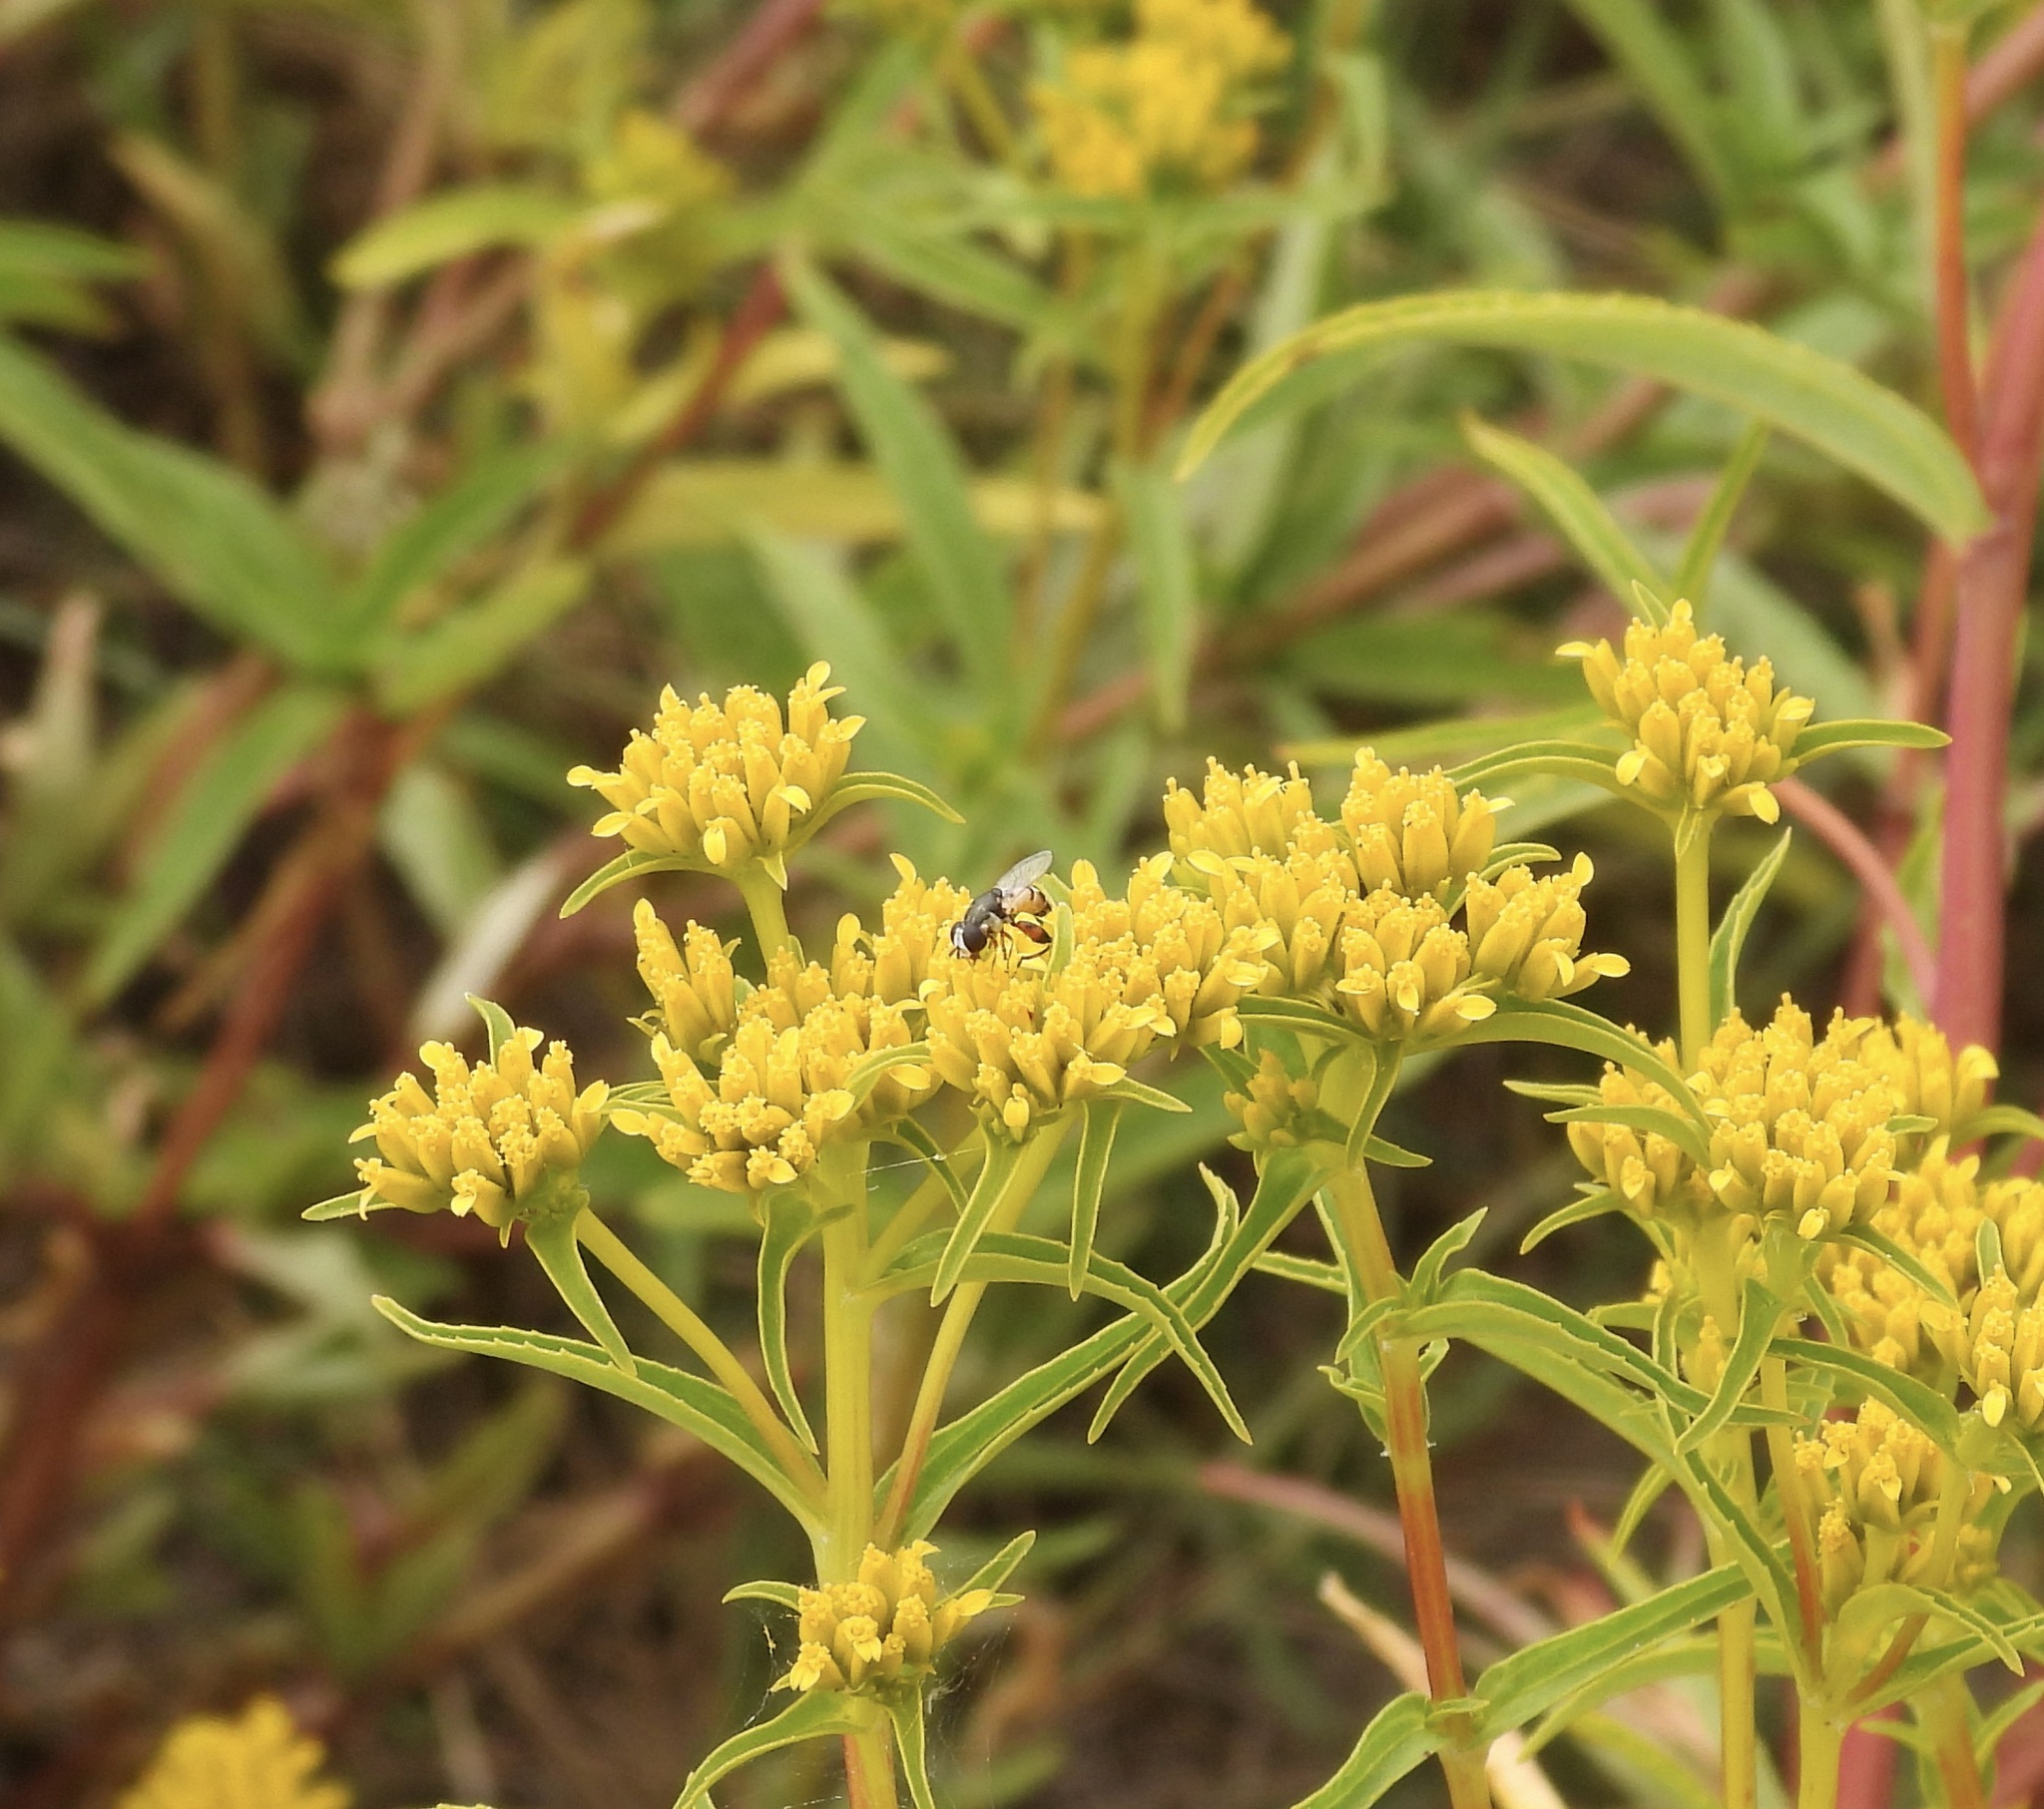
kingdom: Animalia
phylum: Arthropoda
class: Insecta
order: Diptera
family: Syrphidae
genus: Syritta
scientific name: Syritta flaviventris
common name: Syrphid fly
